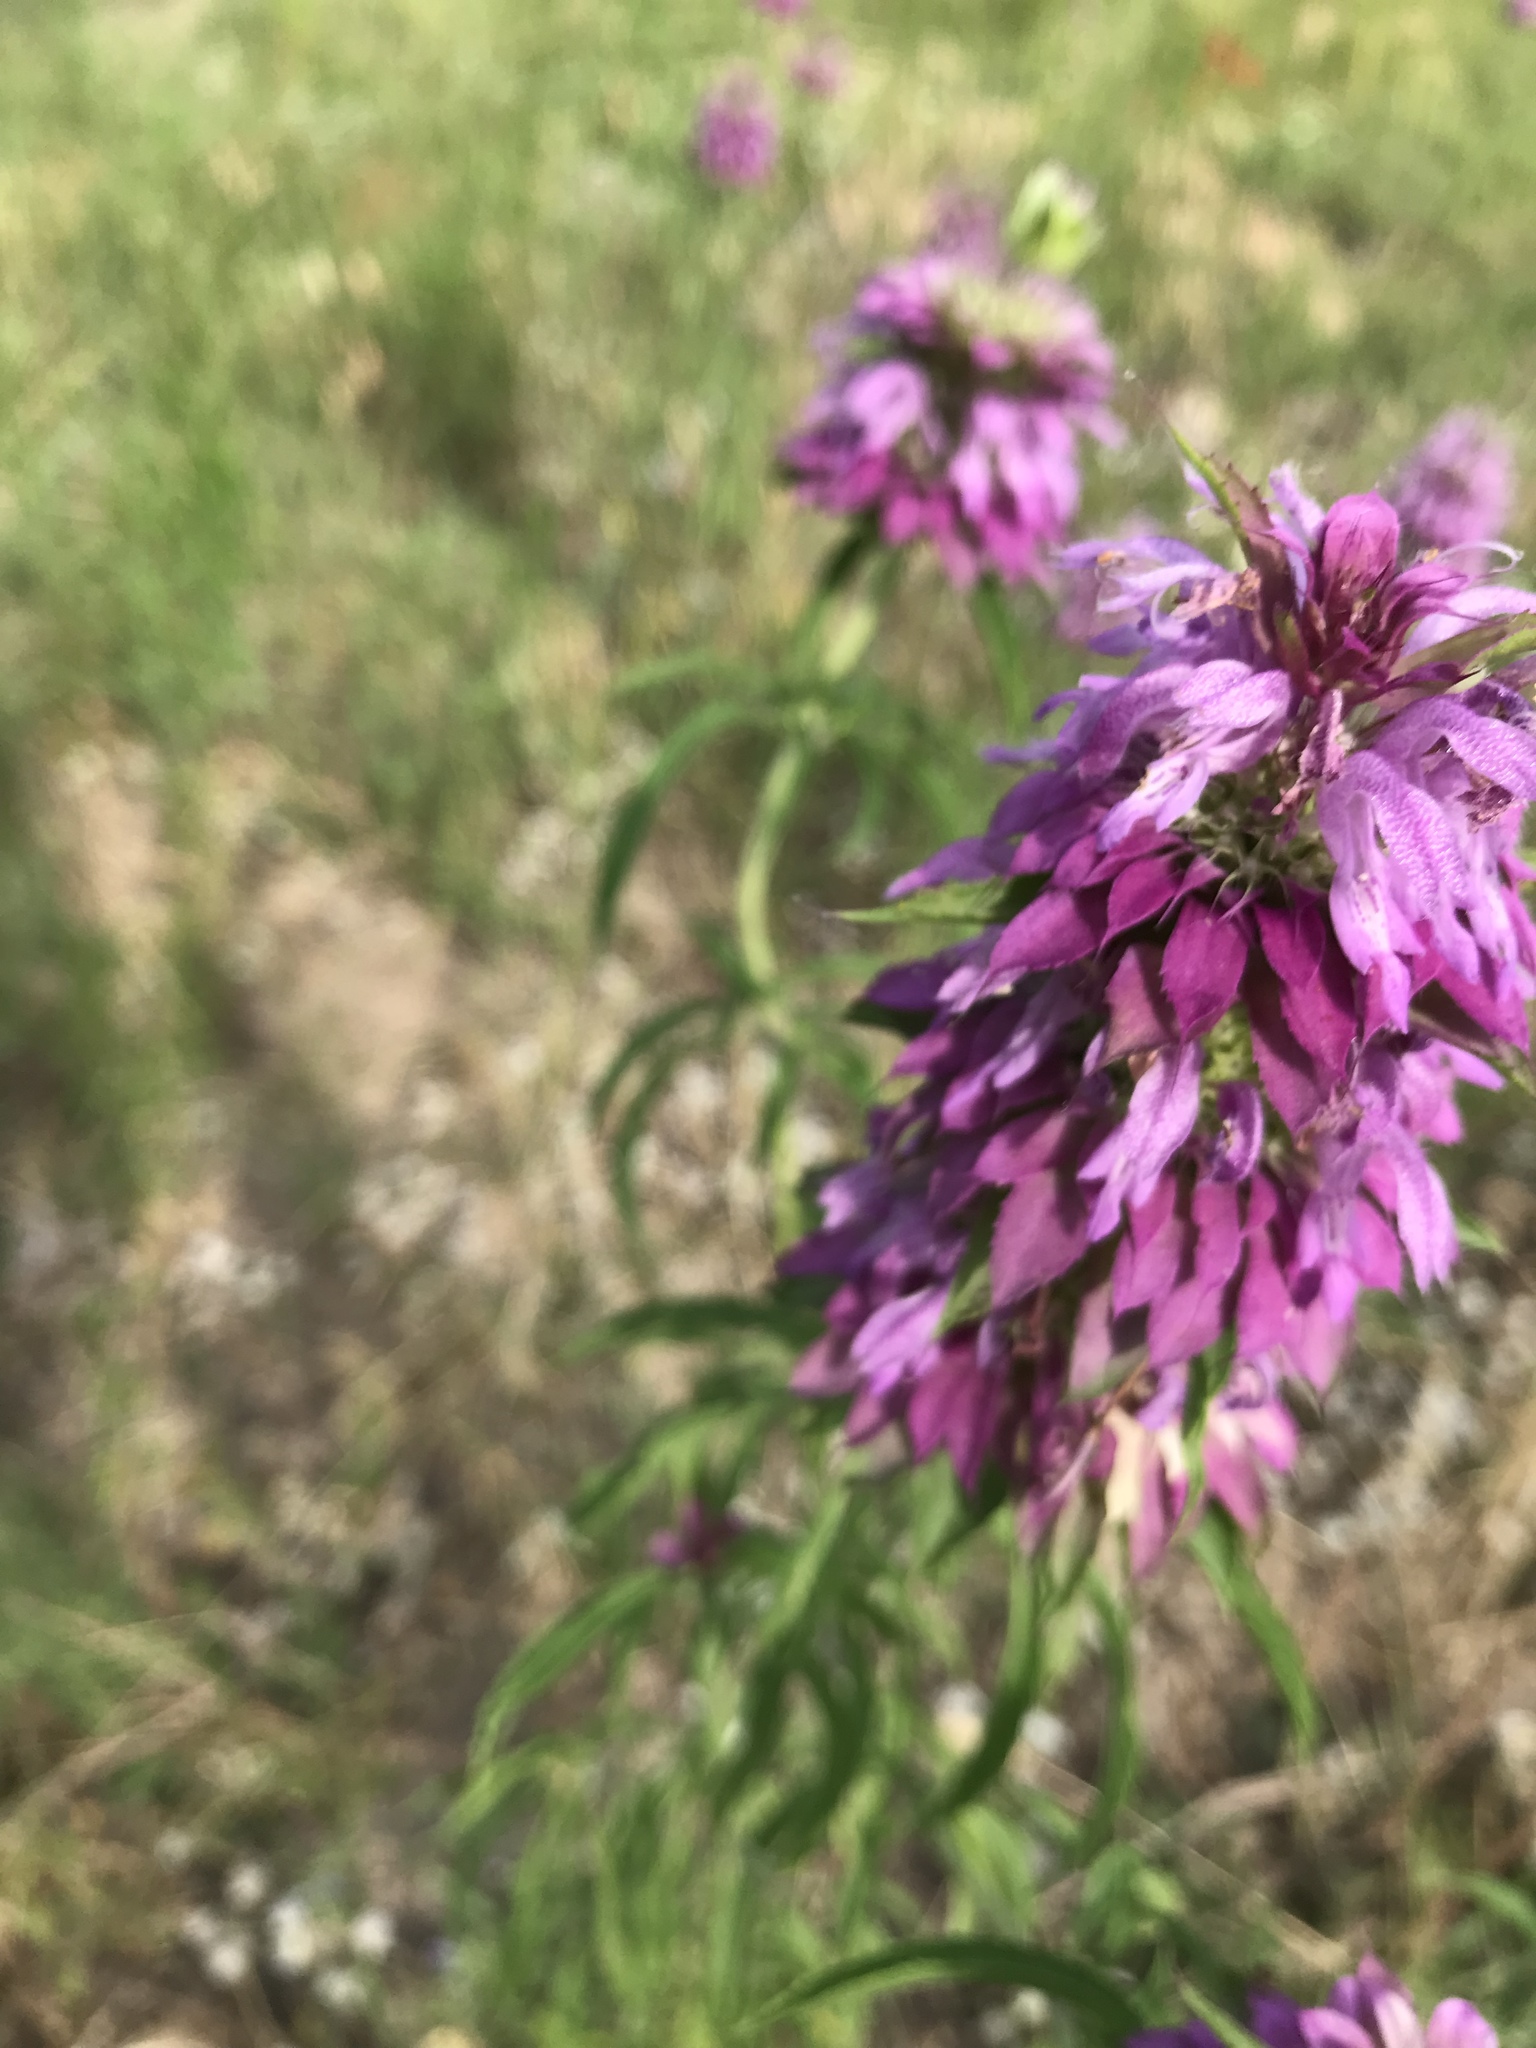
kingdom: Plantae
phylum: Tracheophyta
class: Magnoliopsida
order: Lamiales
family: Lamiaceae
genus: Monarda
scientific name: Monarda citriodora
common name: Lemon beebalm
